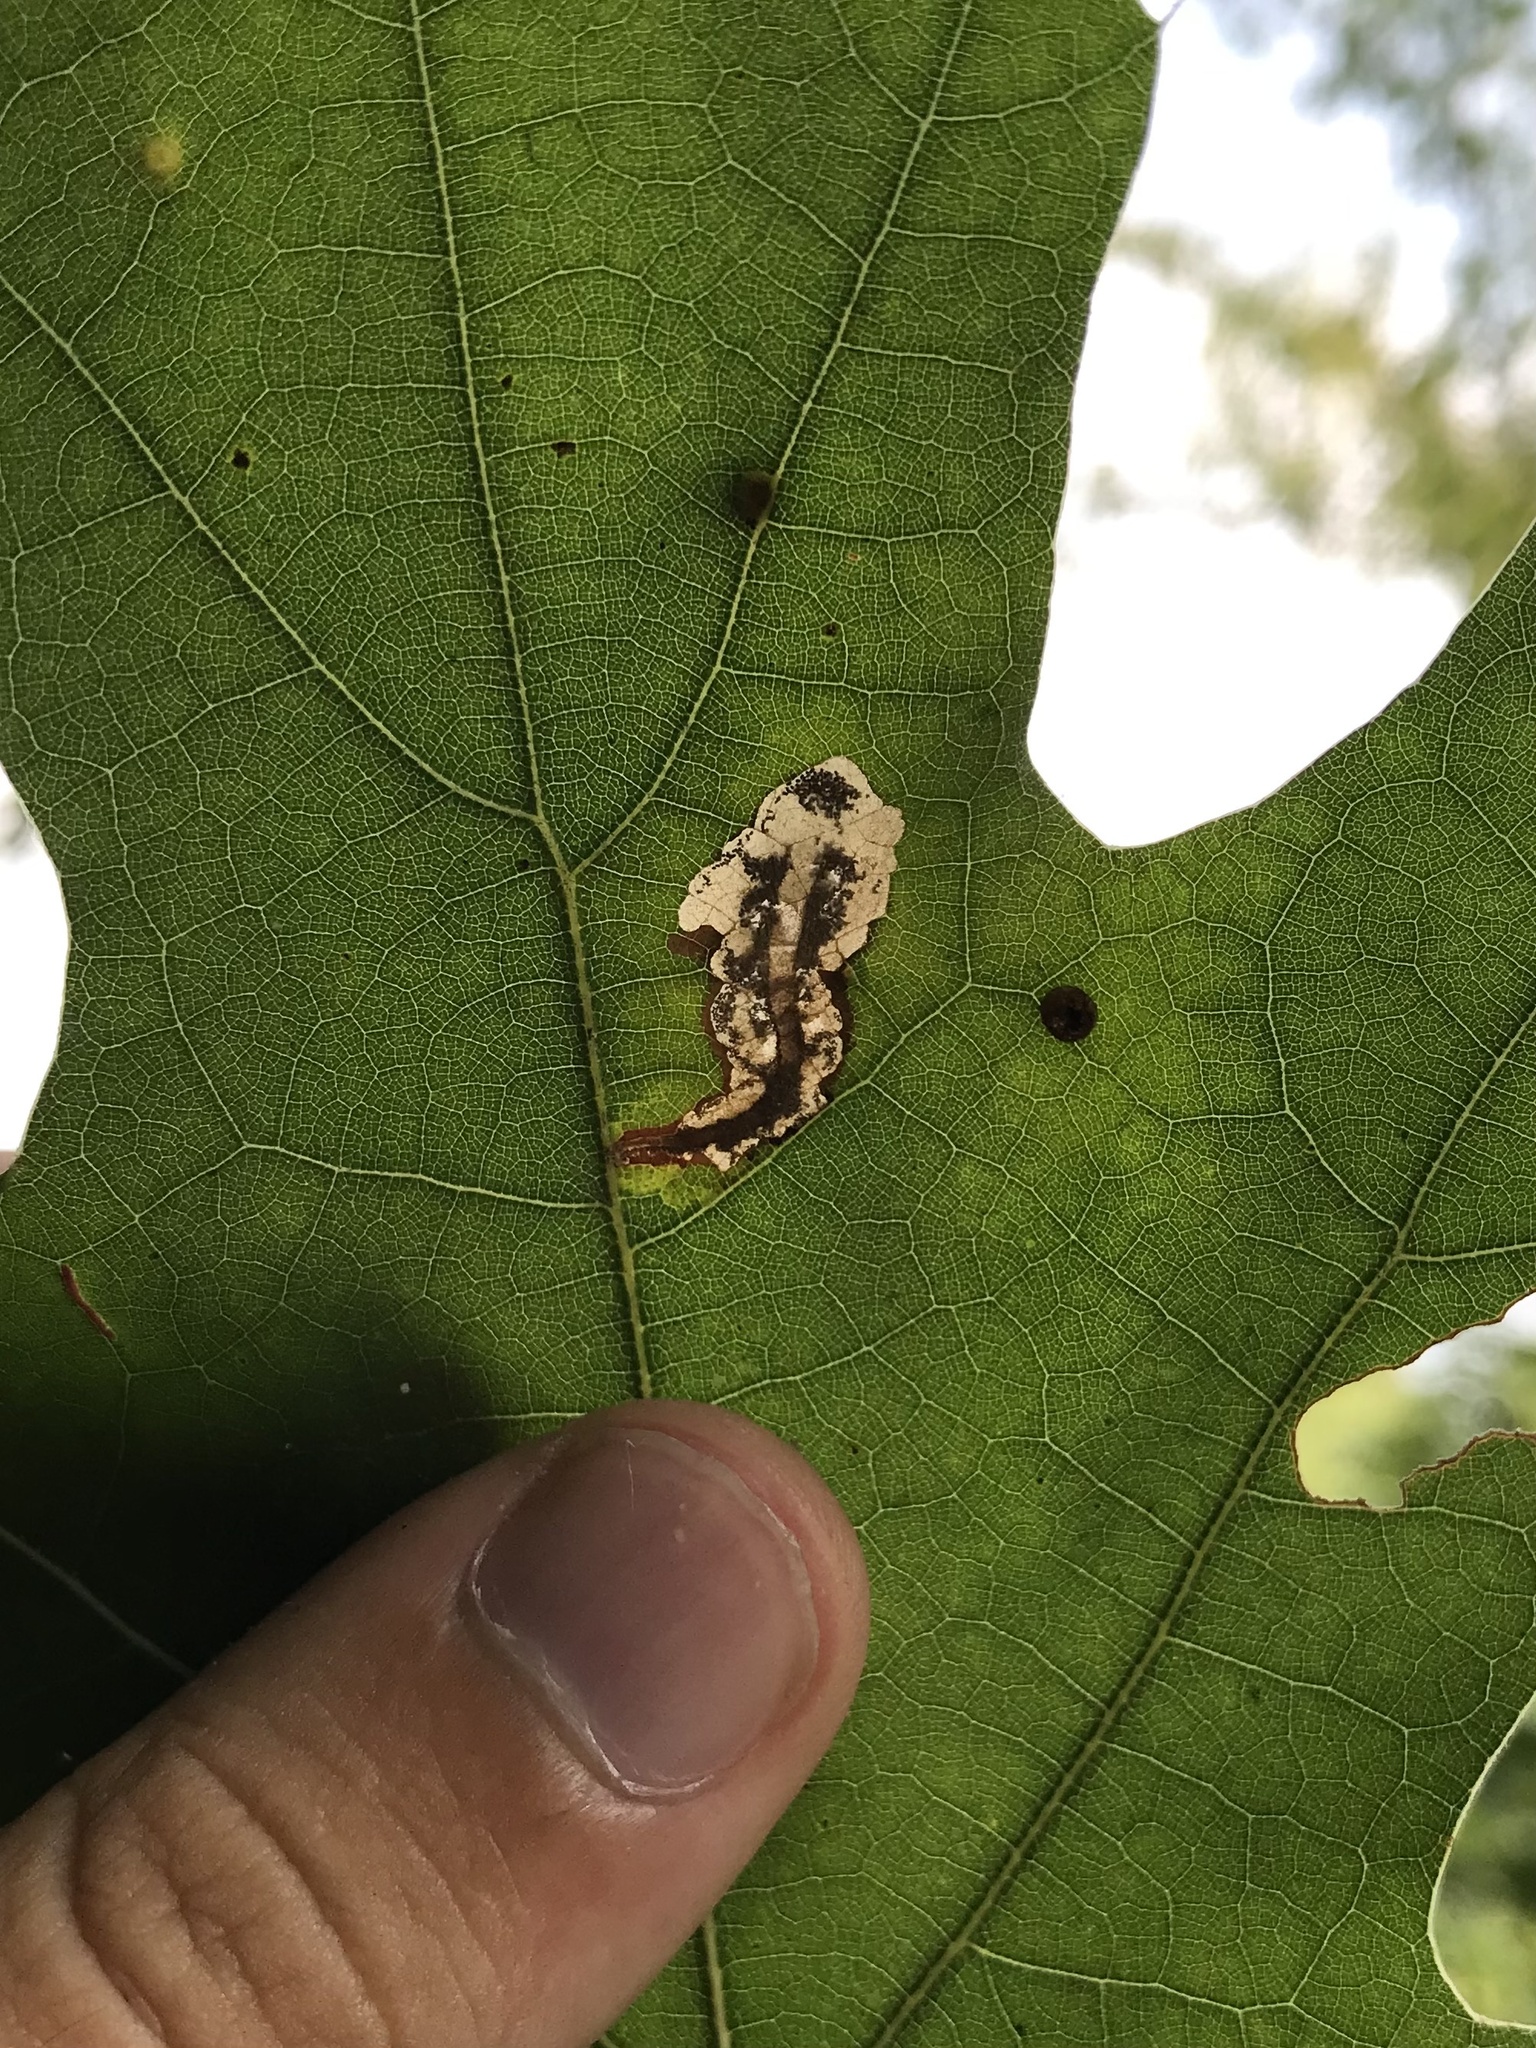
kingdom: Animalia
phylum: Arthropoda
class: Insecta
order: Lepidoptera
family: Cosmopterigidae
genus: Chrysopeleia
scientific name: Chrysopeleia purpuriella
